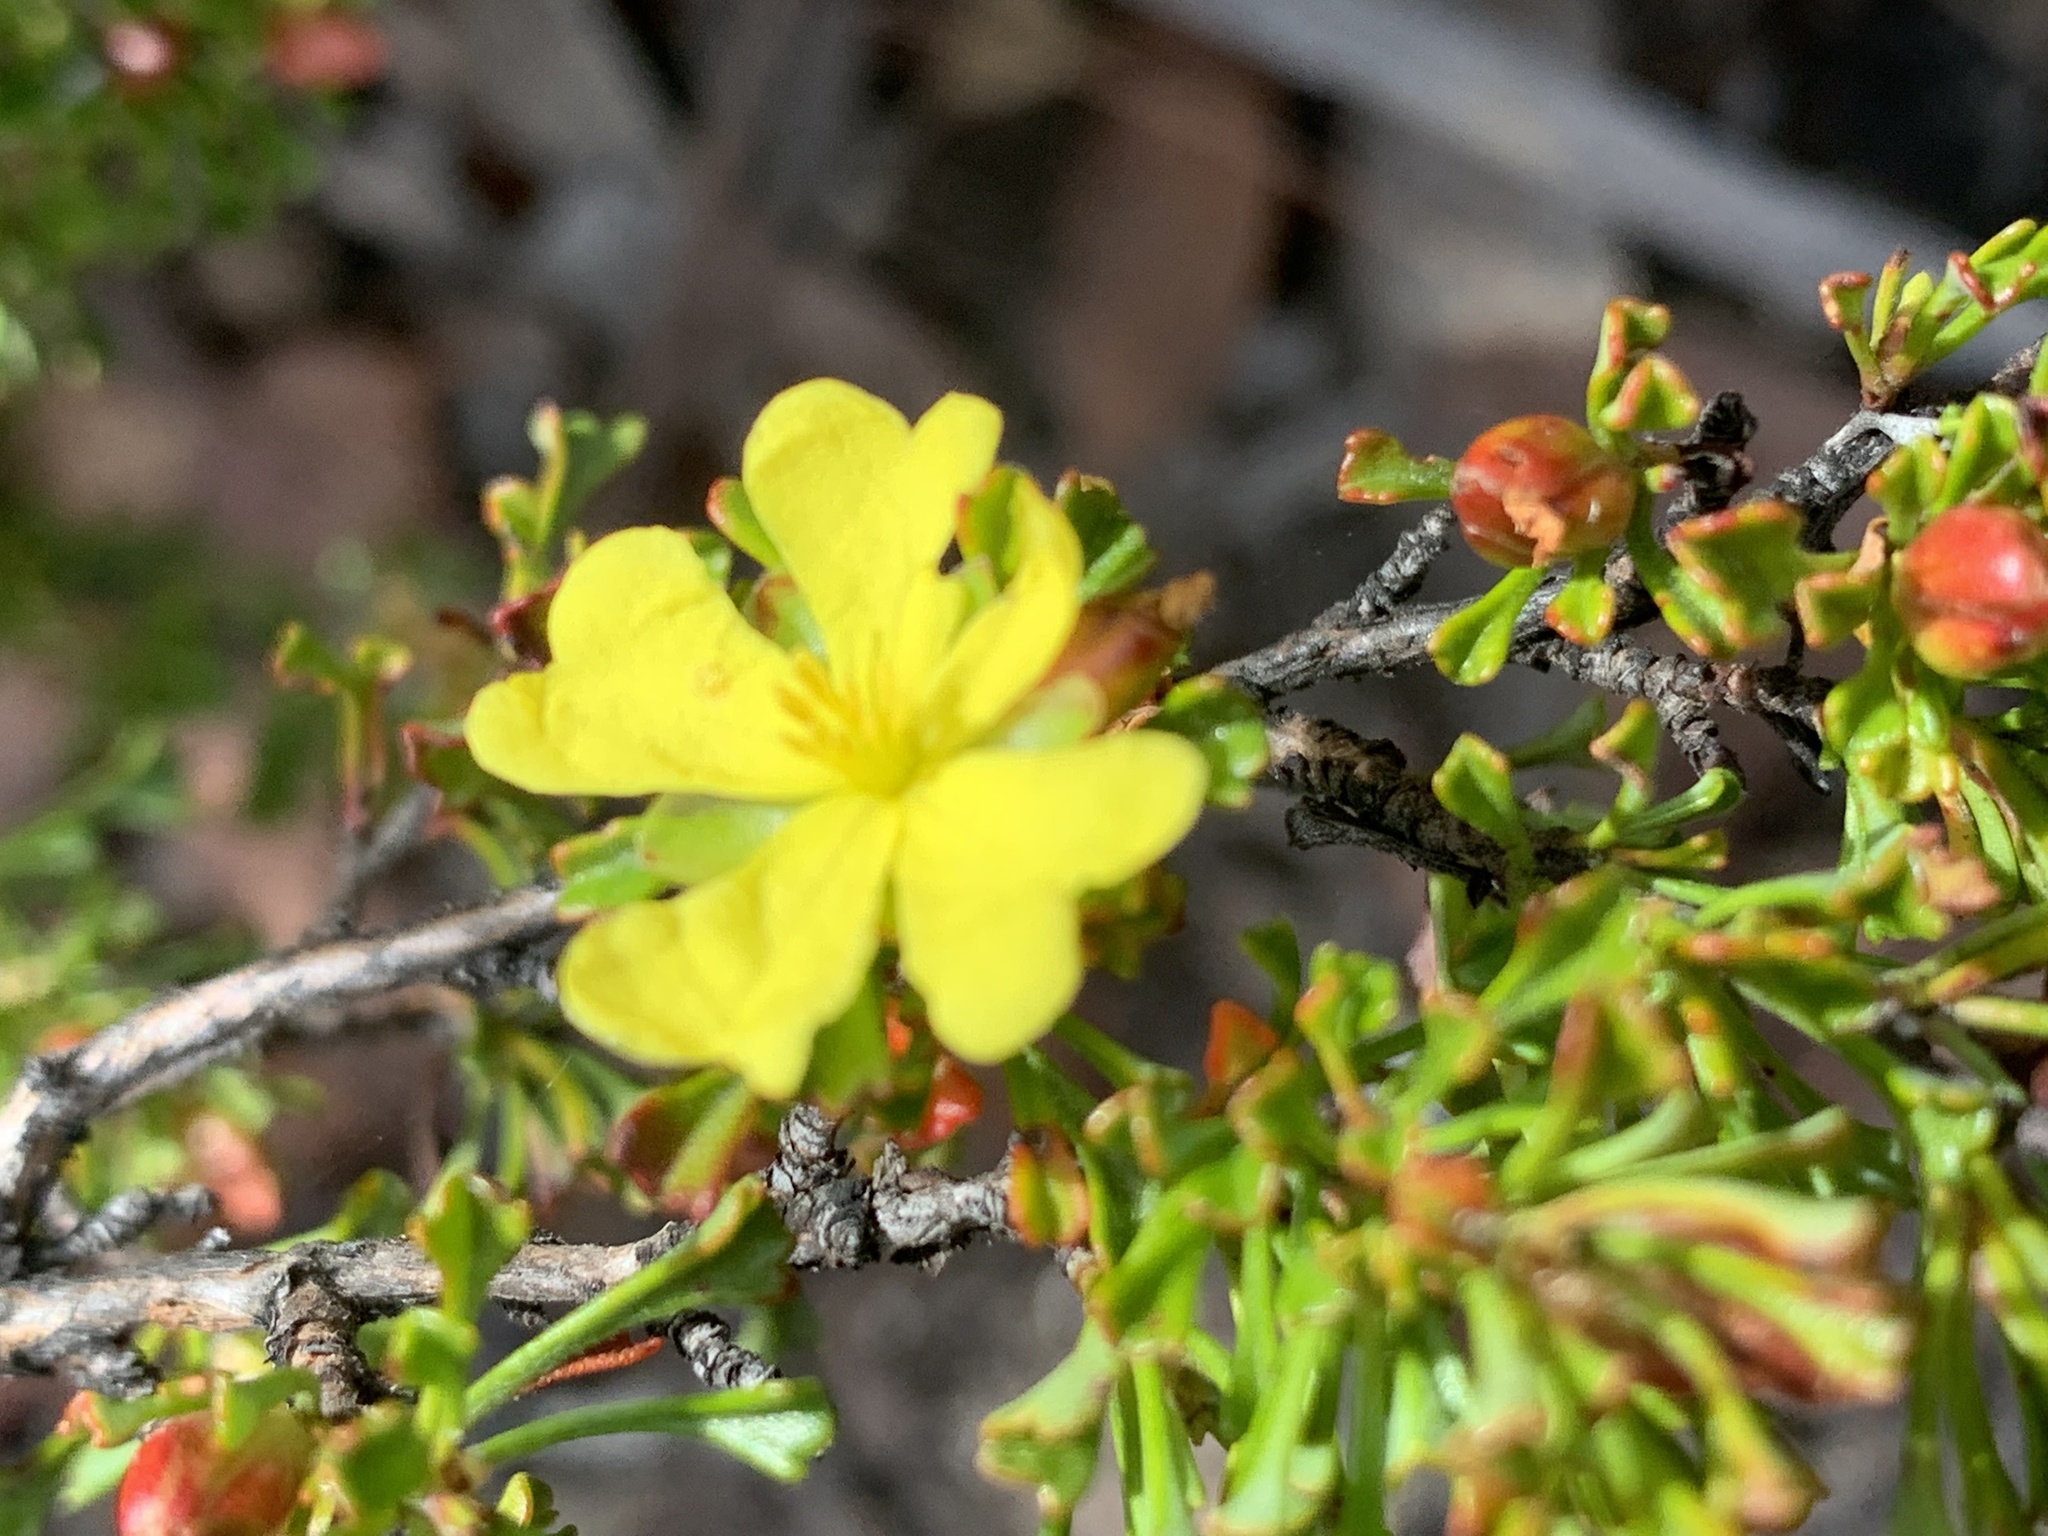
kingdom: Plantae
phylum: Tracheophyta
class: Magnoliopsida
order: Dilleniales
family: Dilleniaceae
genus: Hibbertia
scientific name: Hibbertia monogyna
